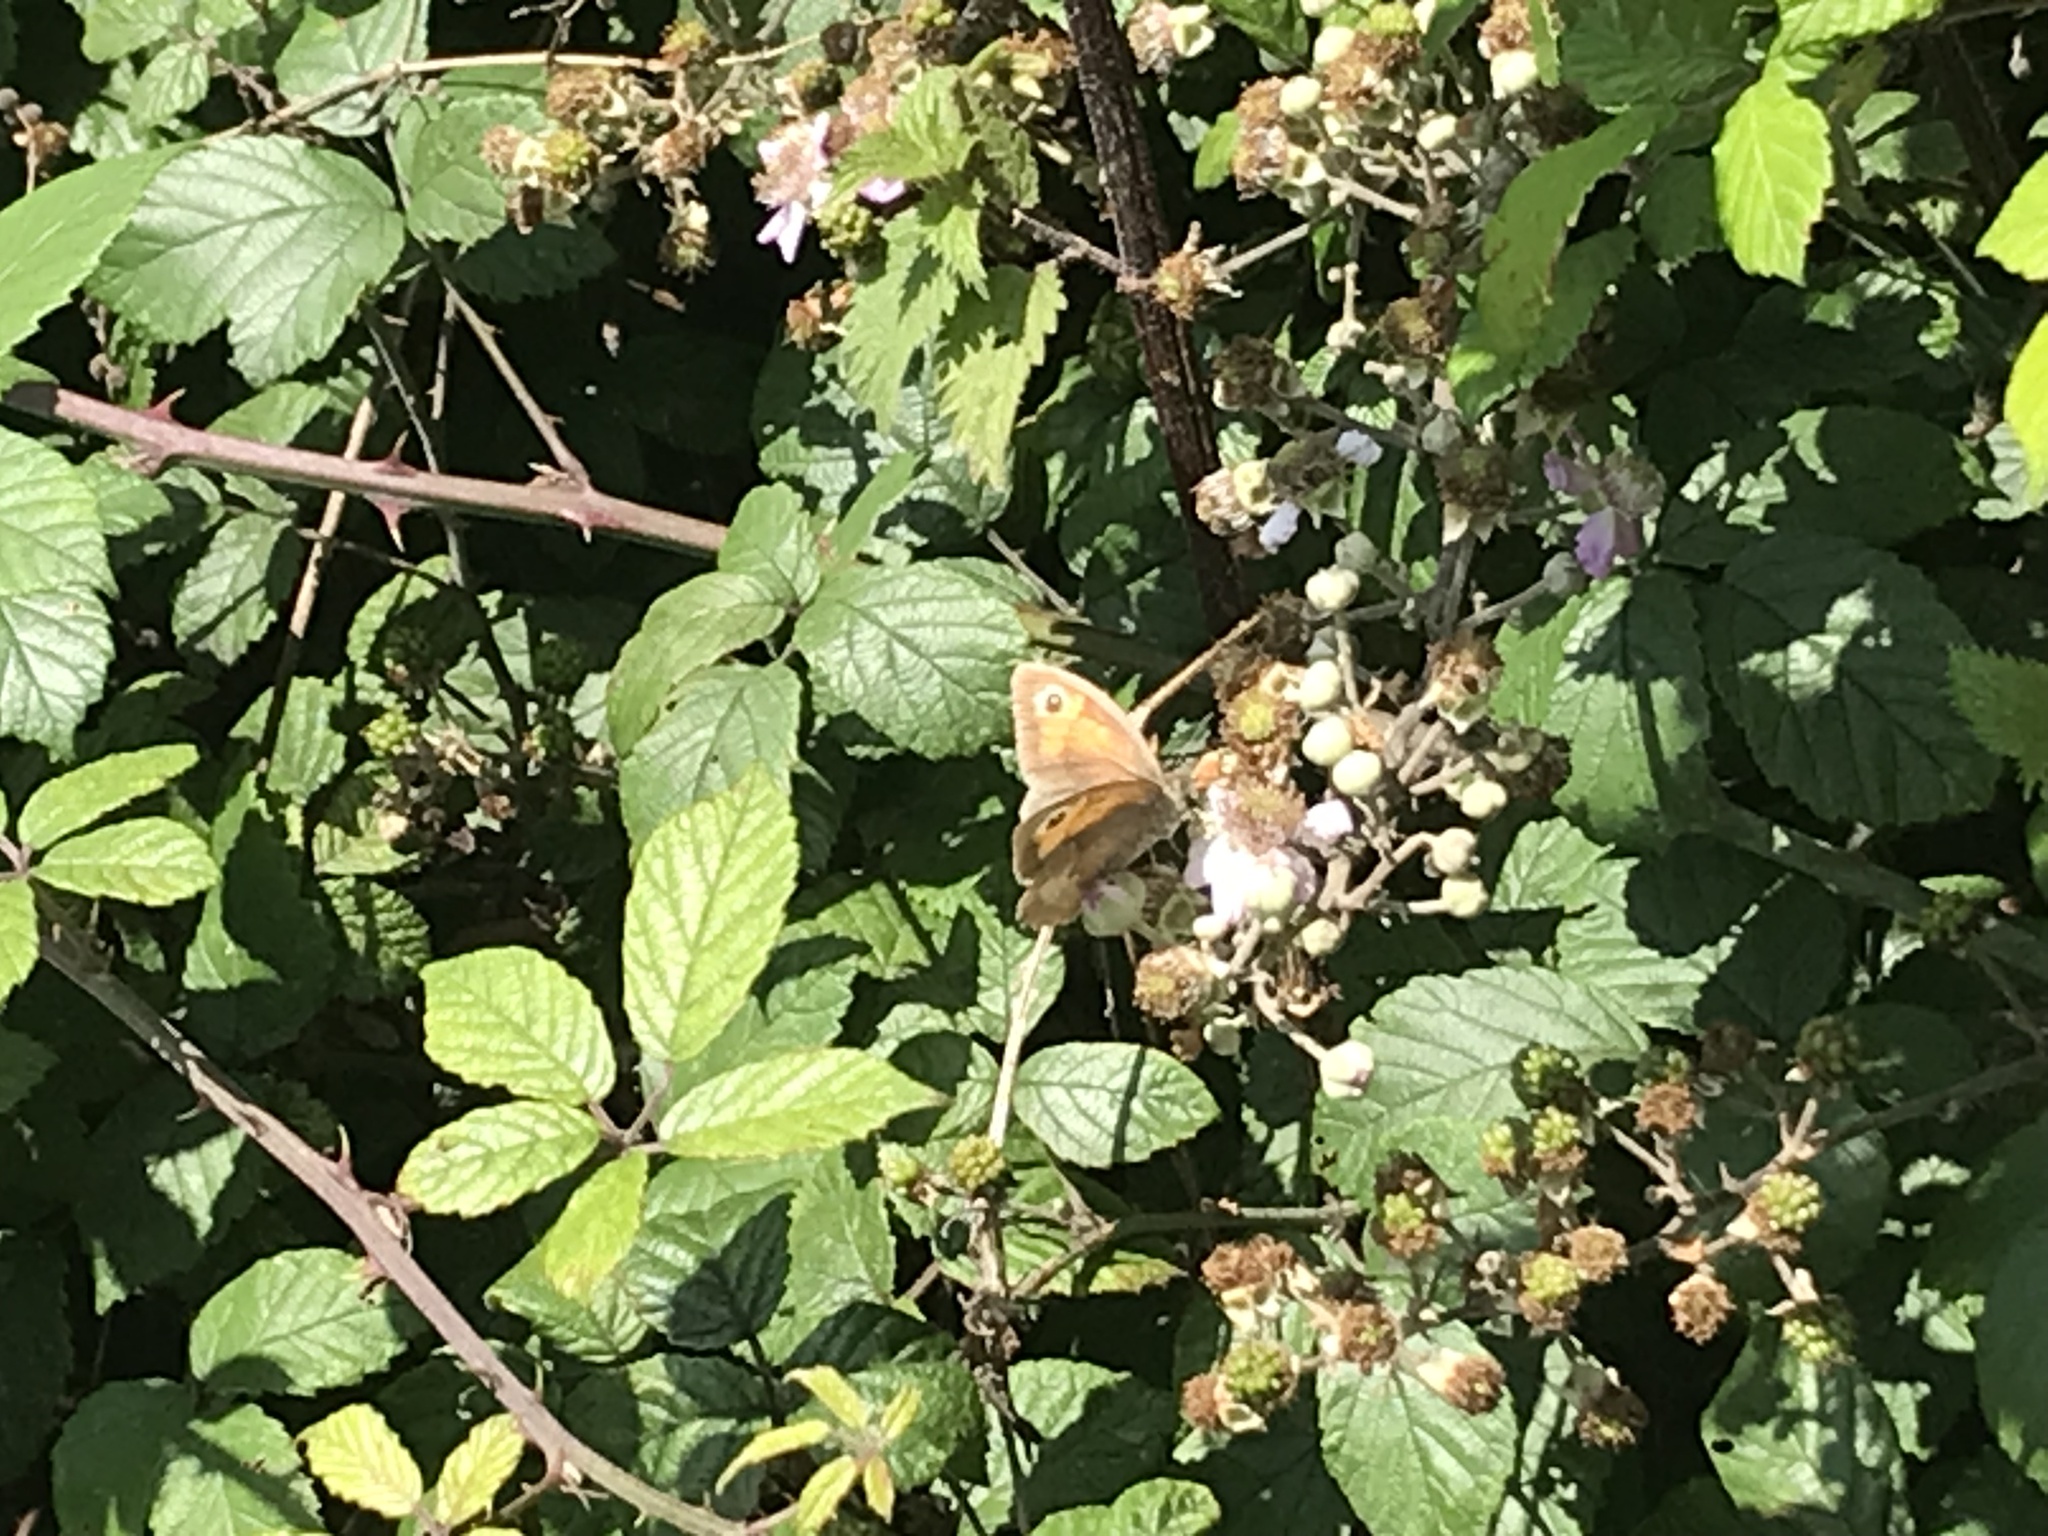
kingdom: Animalia
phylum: Arthropoda
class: Insecta
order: Lepidoptera
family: Nymphalidae
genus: Maniola
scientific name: Maniola jurtina
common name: Meadow brown
